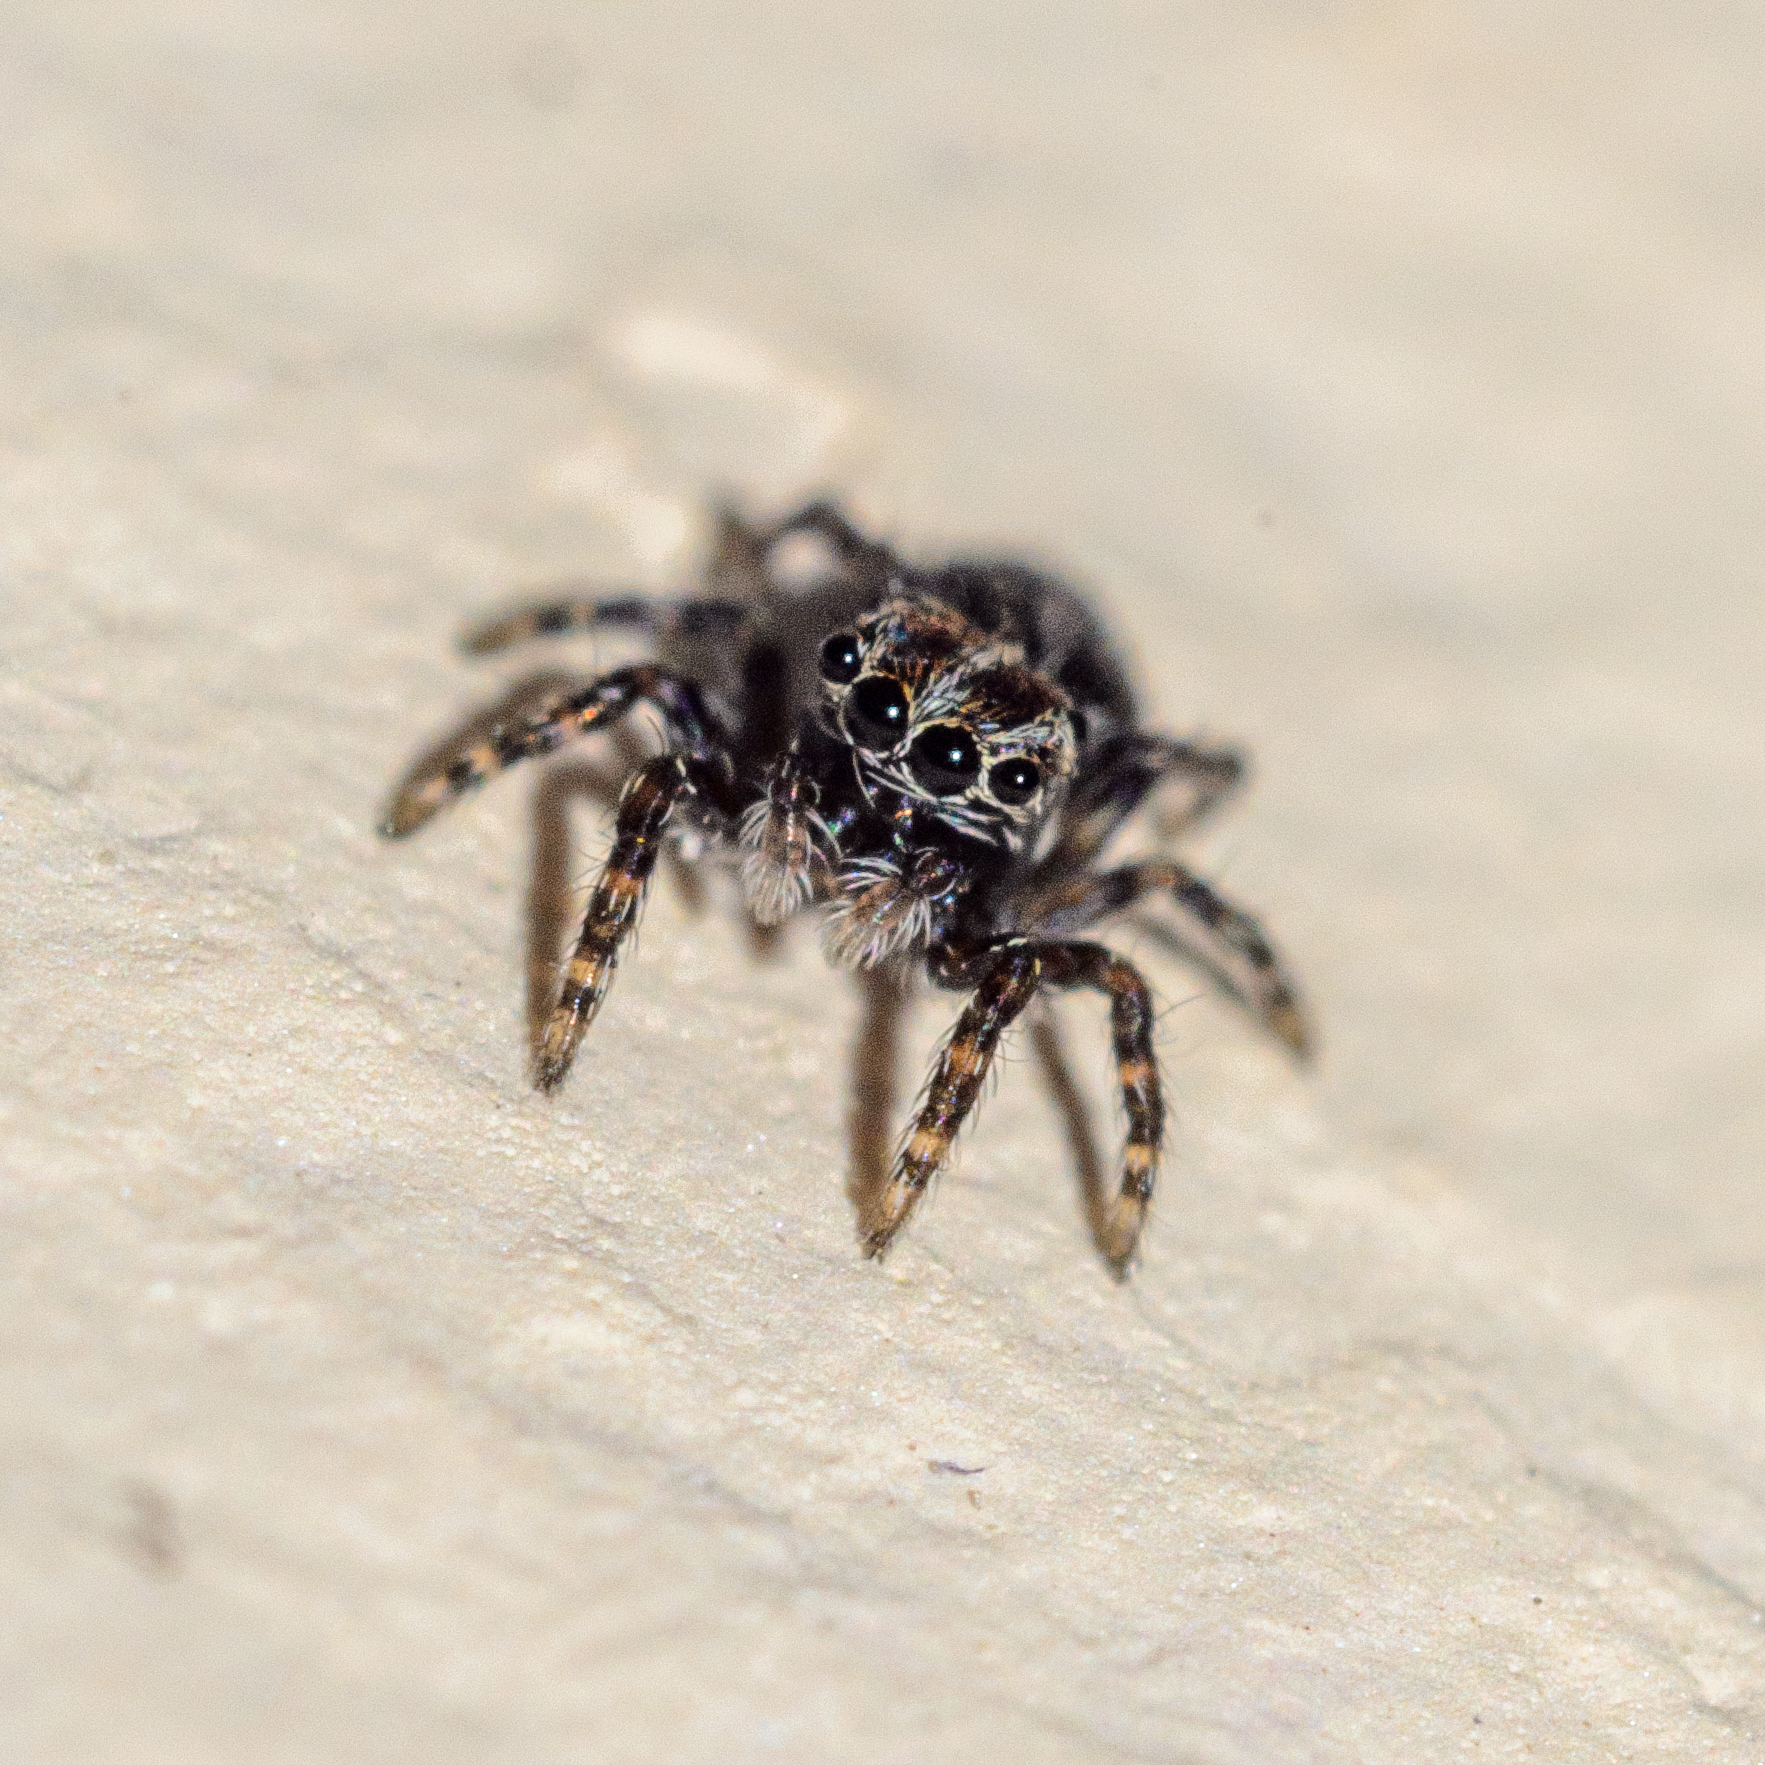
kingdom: Animalia
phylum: Arthropoda
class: Arachnida
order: Araneae
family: Salticidae
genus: Pseudeuophrys
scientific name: Pseudeuophrys
